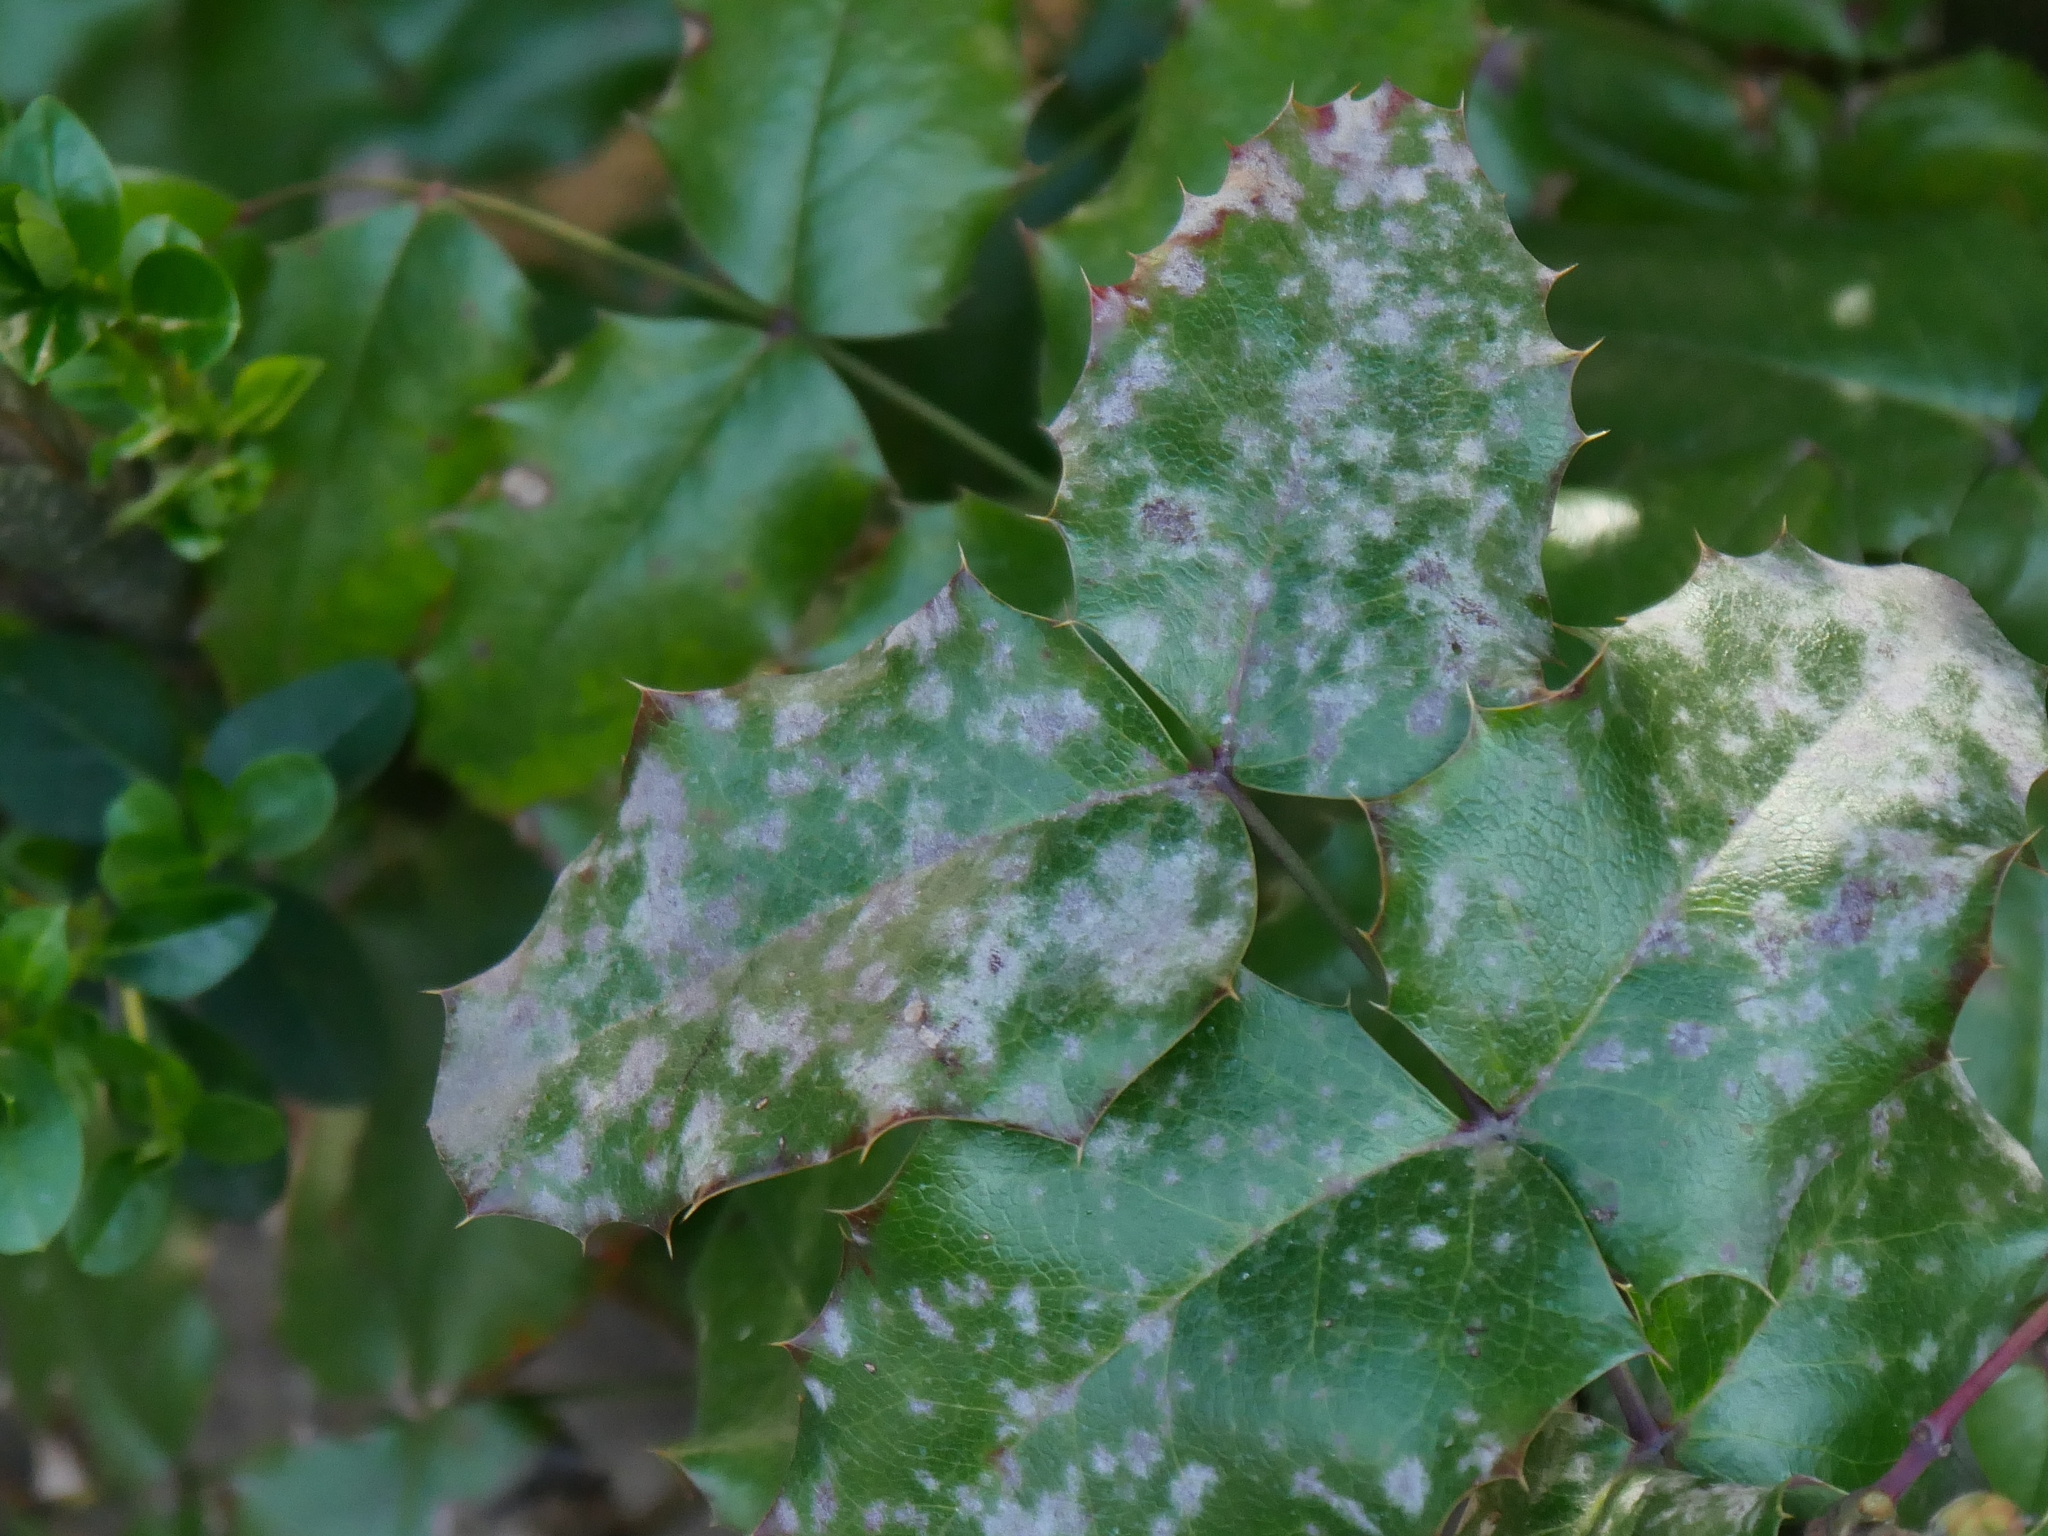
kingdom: Fungi
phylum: Ascomycota
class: Leotiomycetes
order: Helotiales
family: Erysiphaceae
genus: Erysiphe
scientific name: Erysiphe berberidis
